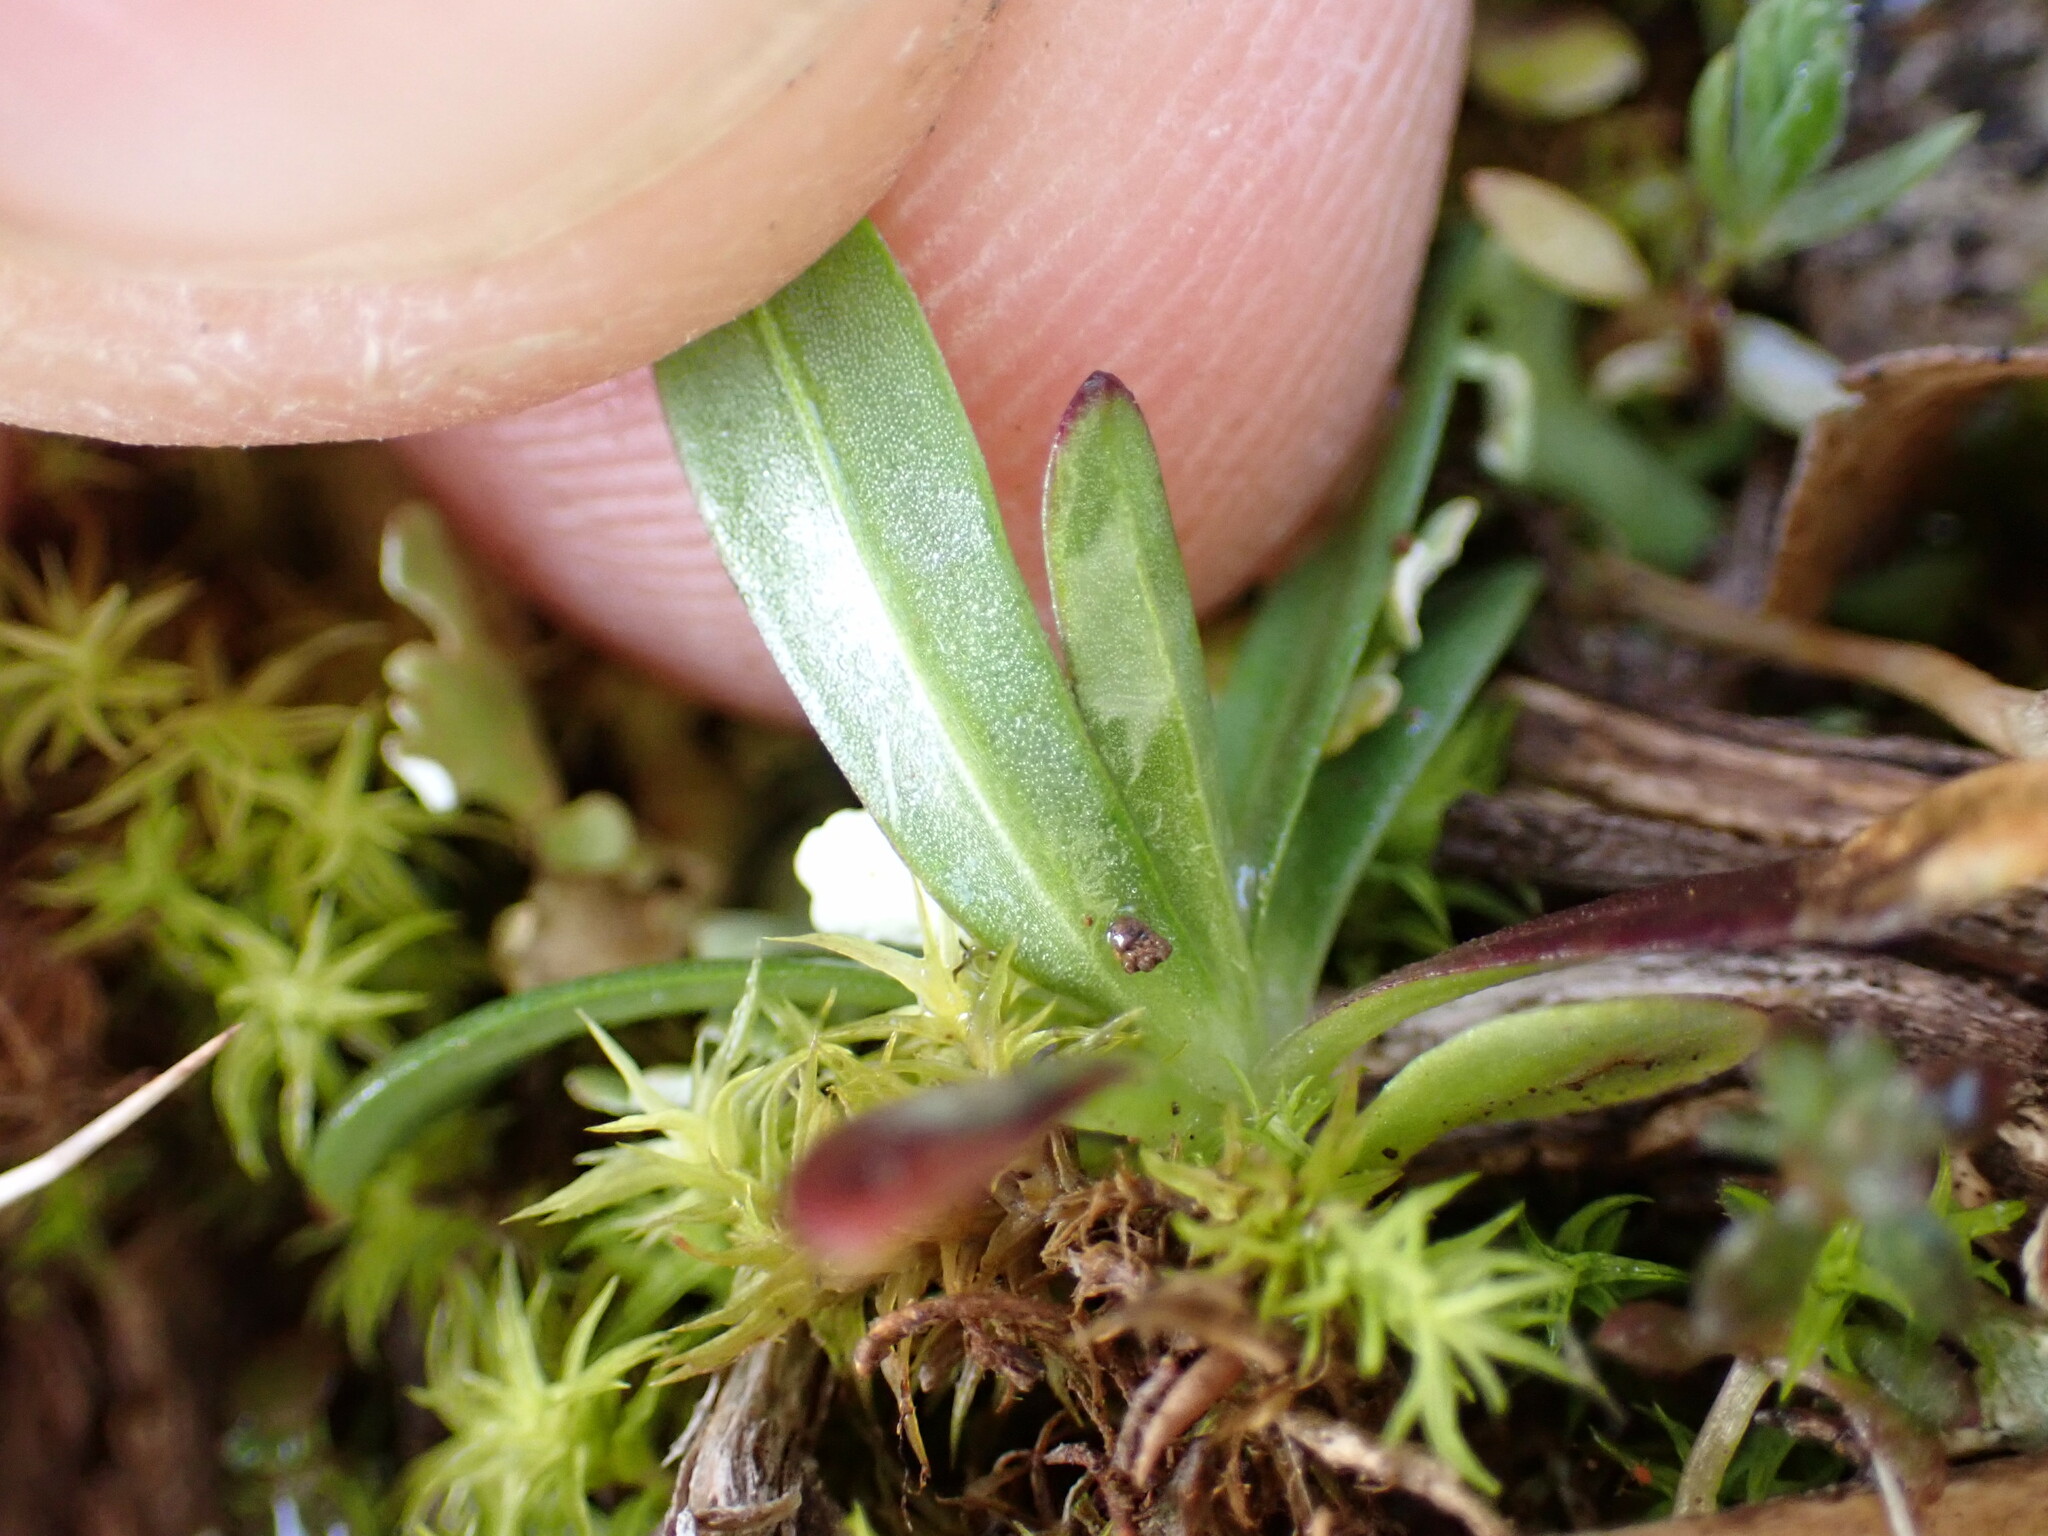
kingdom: Plantae
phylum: Tracheophyta
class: Magnoliopsida
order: Caryophyllales
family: Caryophyllaceae
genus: Petrorhagia
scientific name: Petrorhagia prolifera
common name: Proliferous pink
